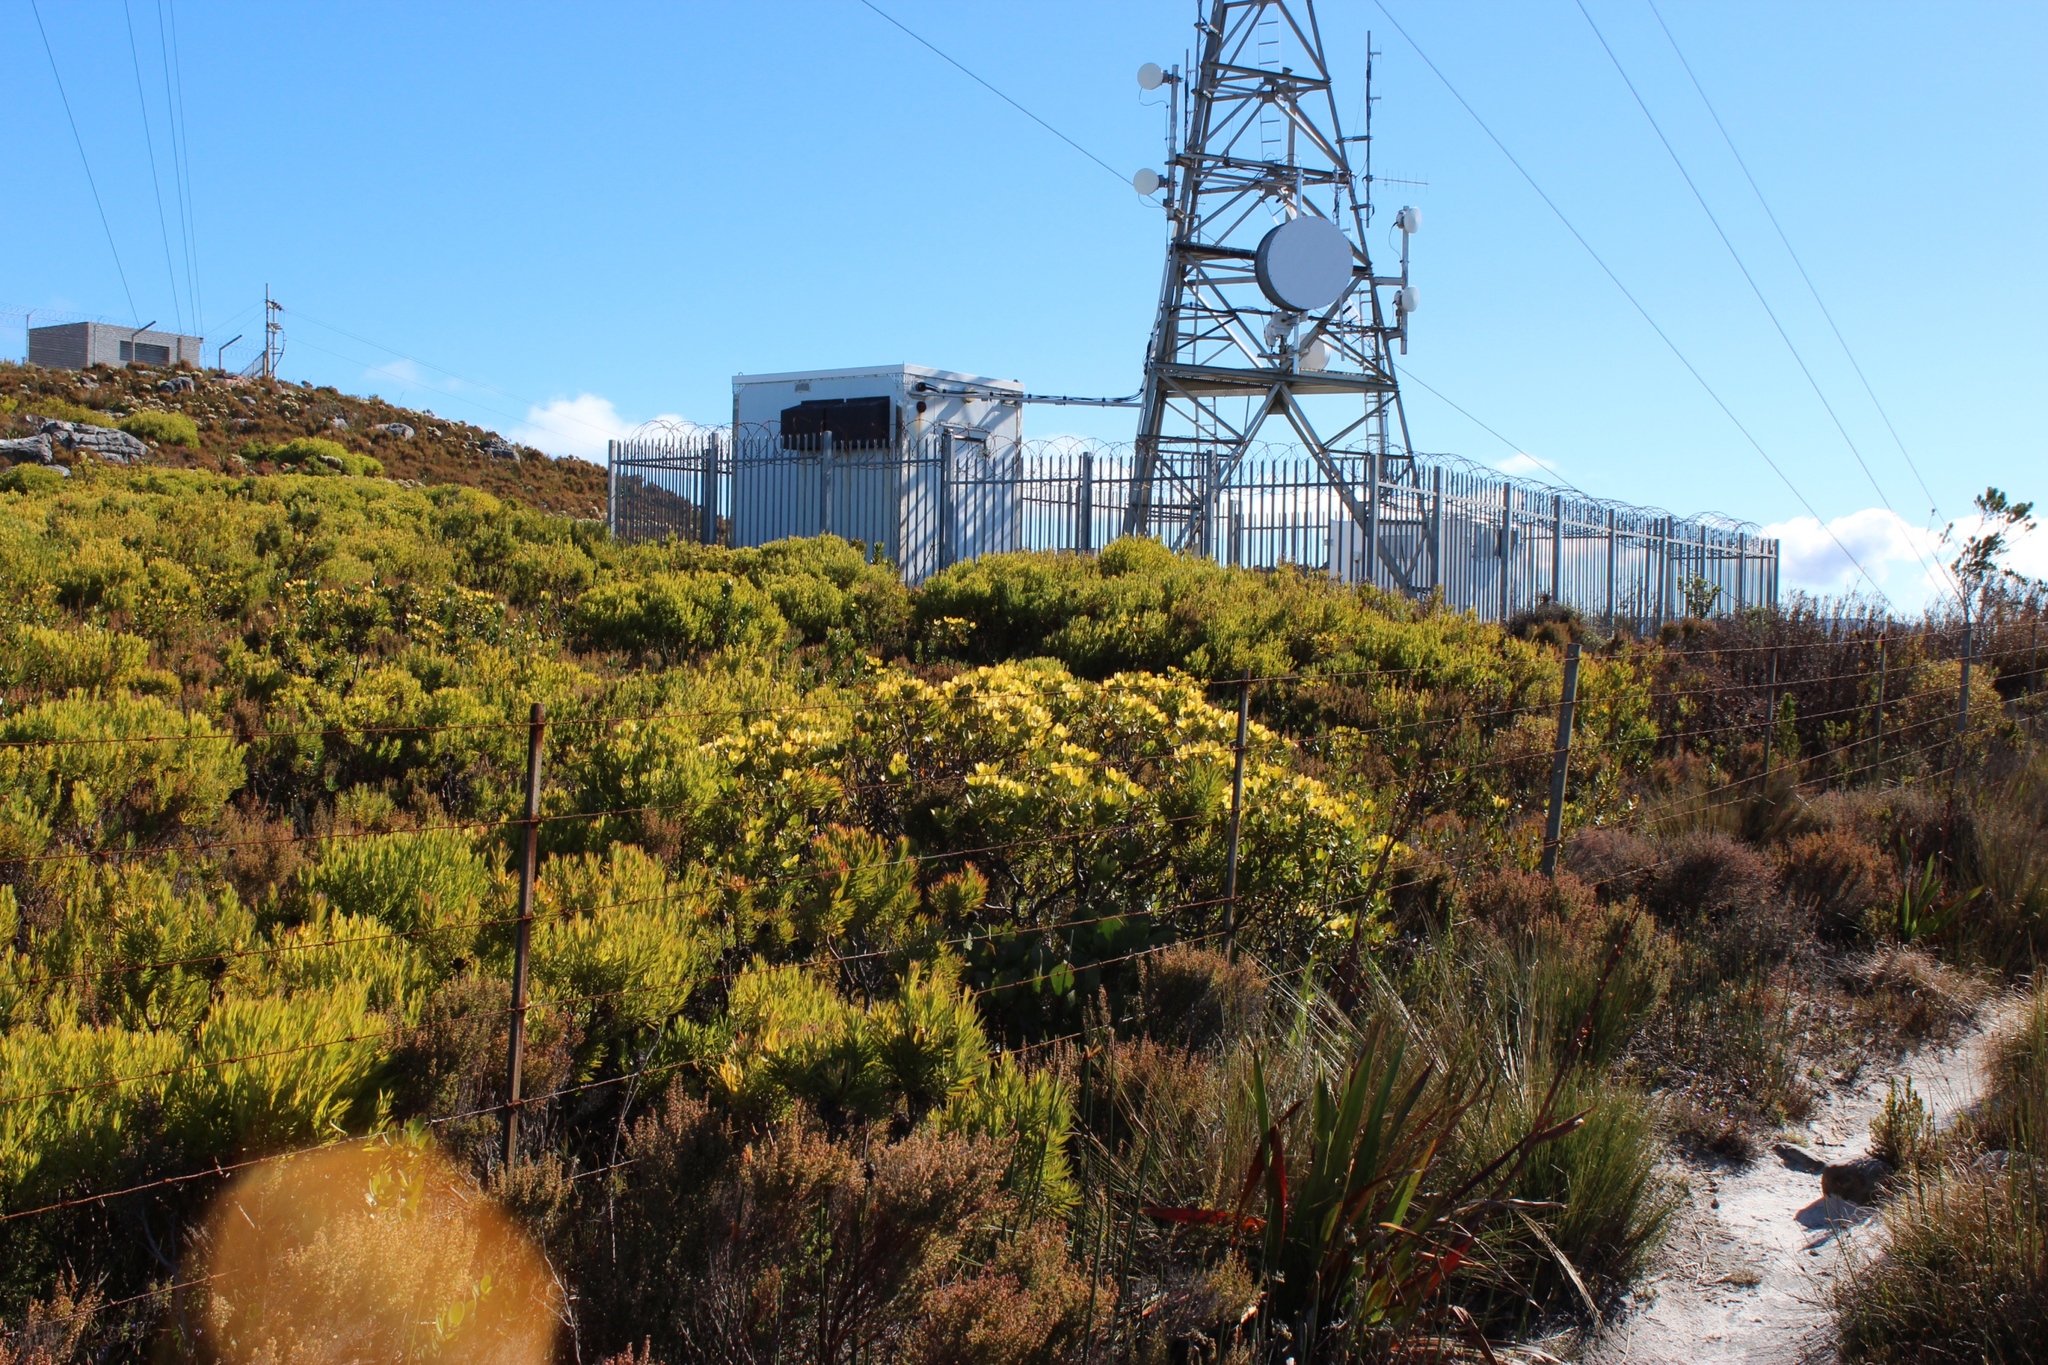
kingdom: Plantae
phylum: Tracheophyta
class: Magnoliopsida
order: Proteales
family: Proteaceae
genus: Leucadendron
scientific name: Leucadendron strobilinum
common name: Mountain rose
